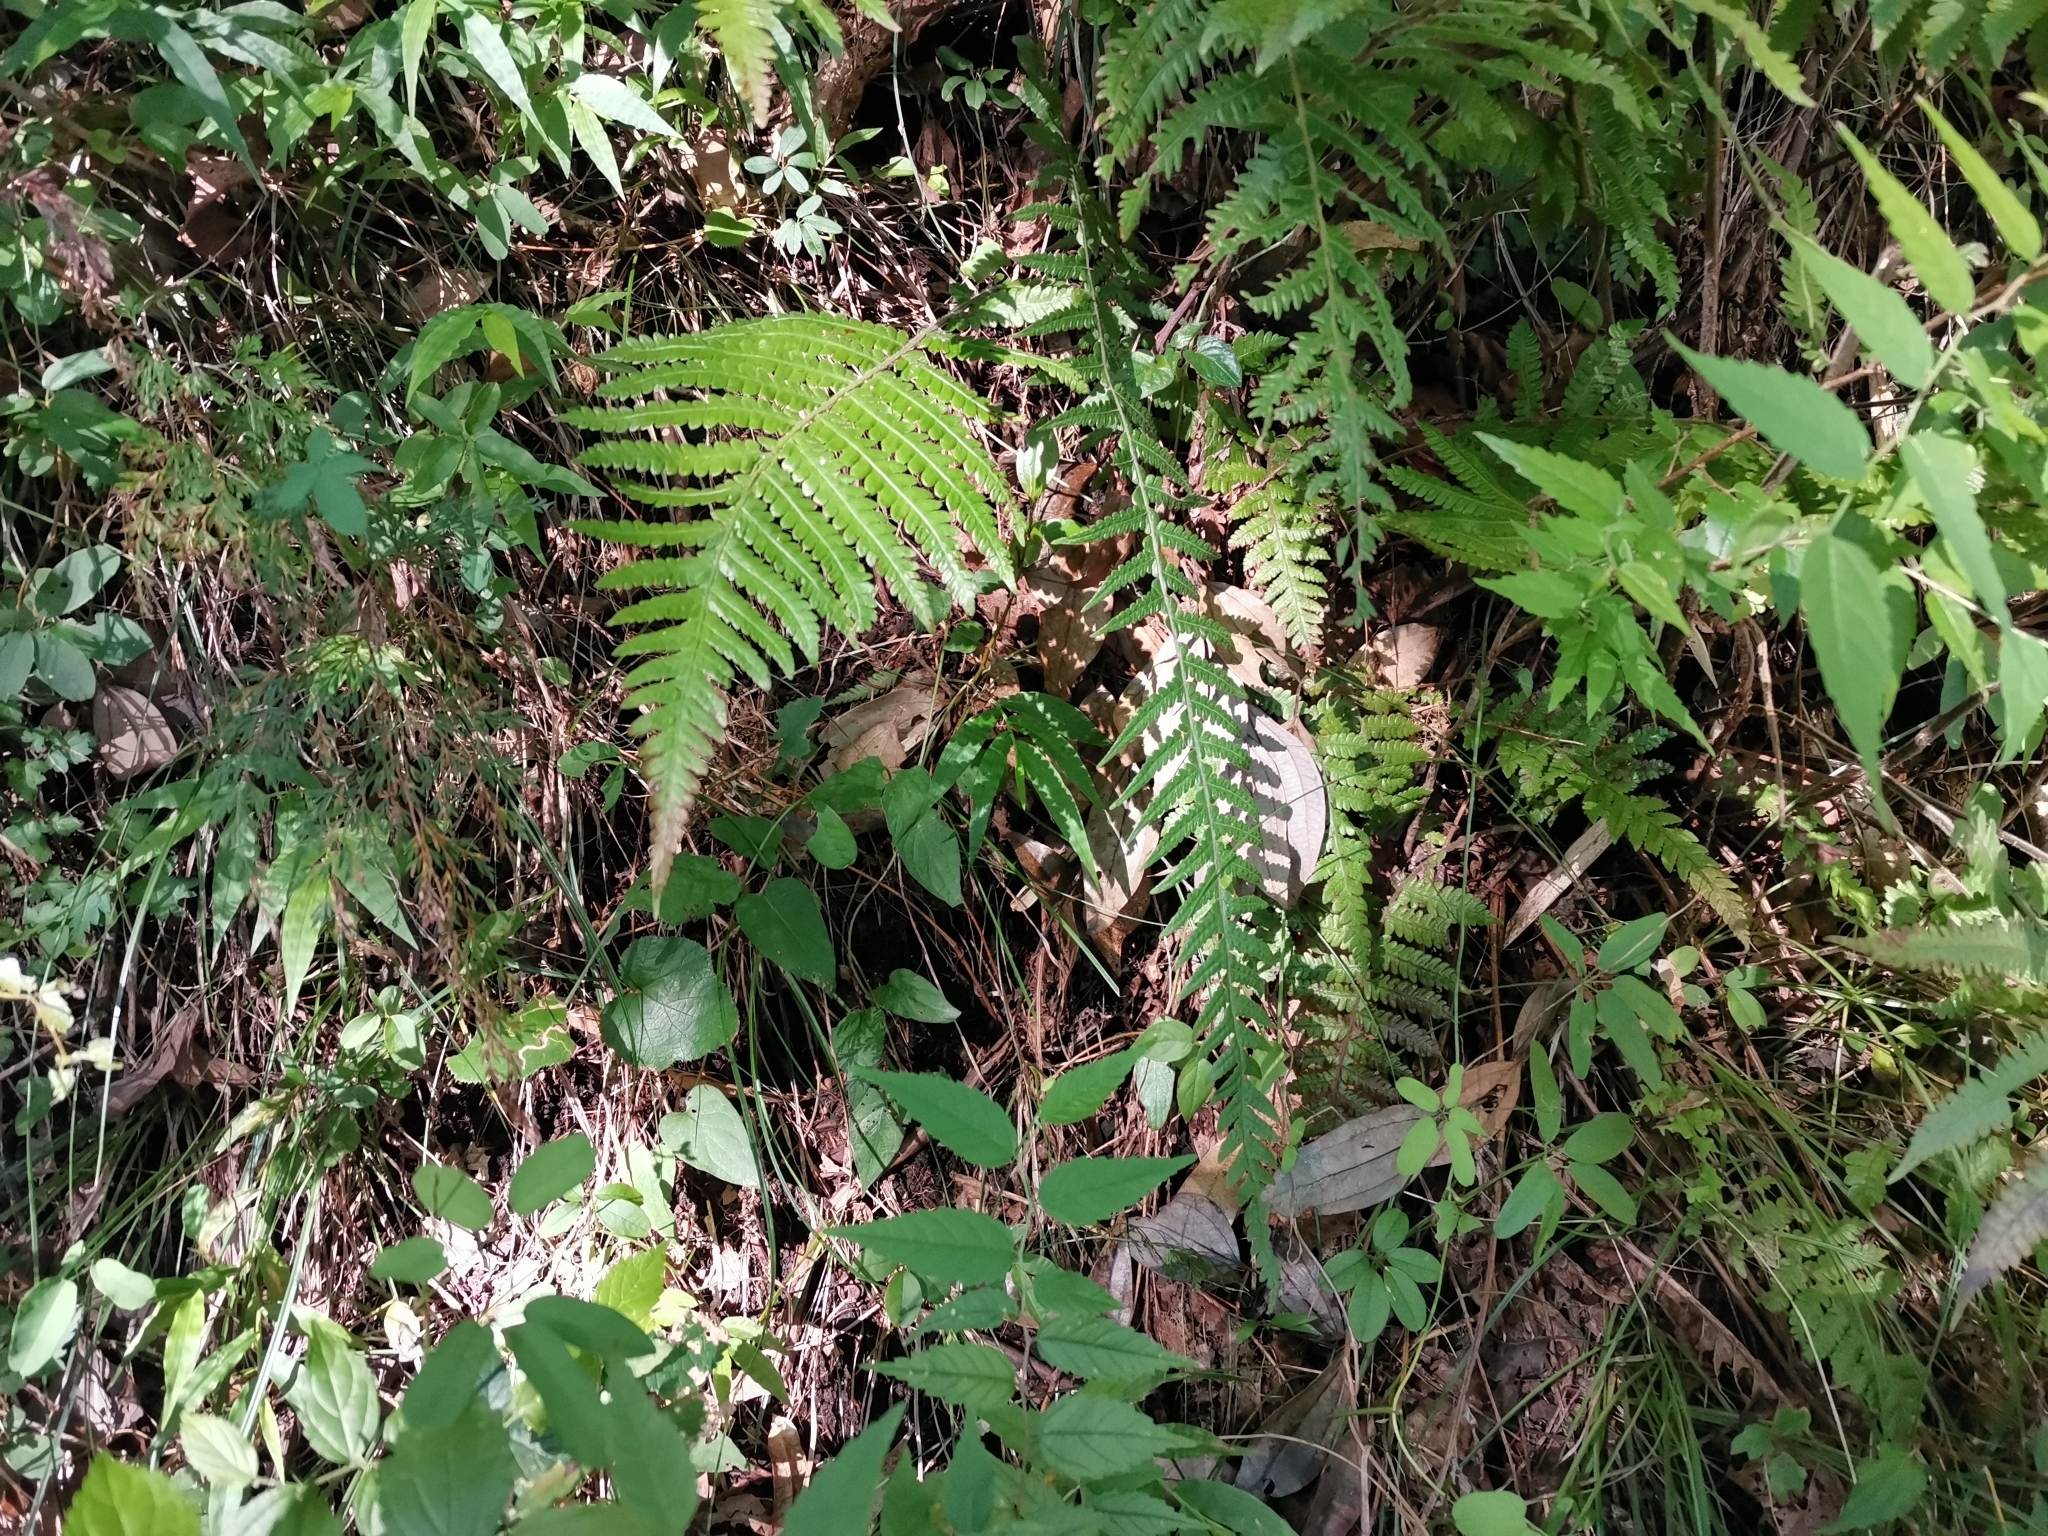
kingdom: Plantae
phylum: Tracheophyta
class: Polypodiopsida
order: Polypodiales
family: Thelypteridaceae
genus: Phegopteris
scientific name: Phegopteris decursive-pinnata
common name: Japanese beech fern
